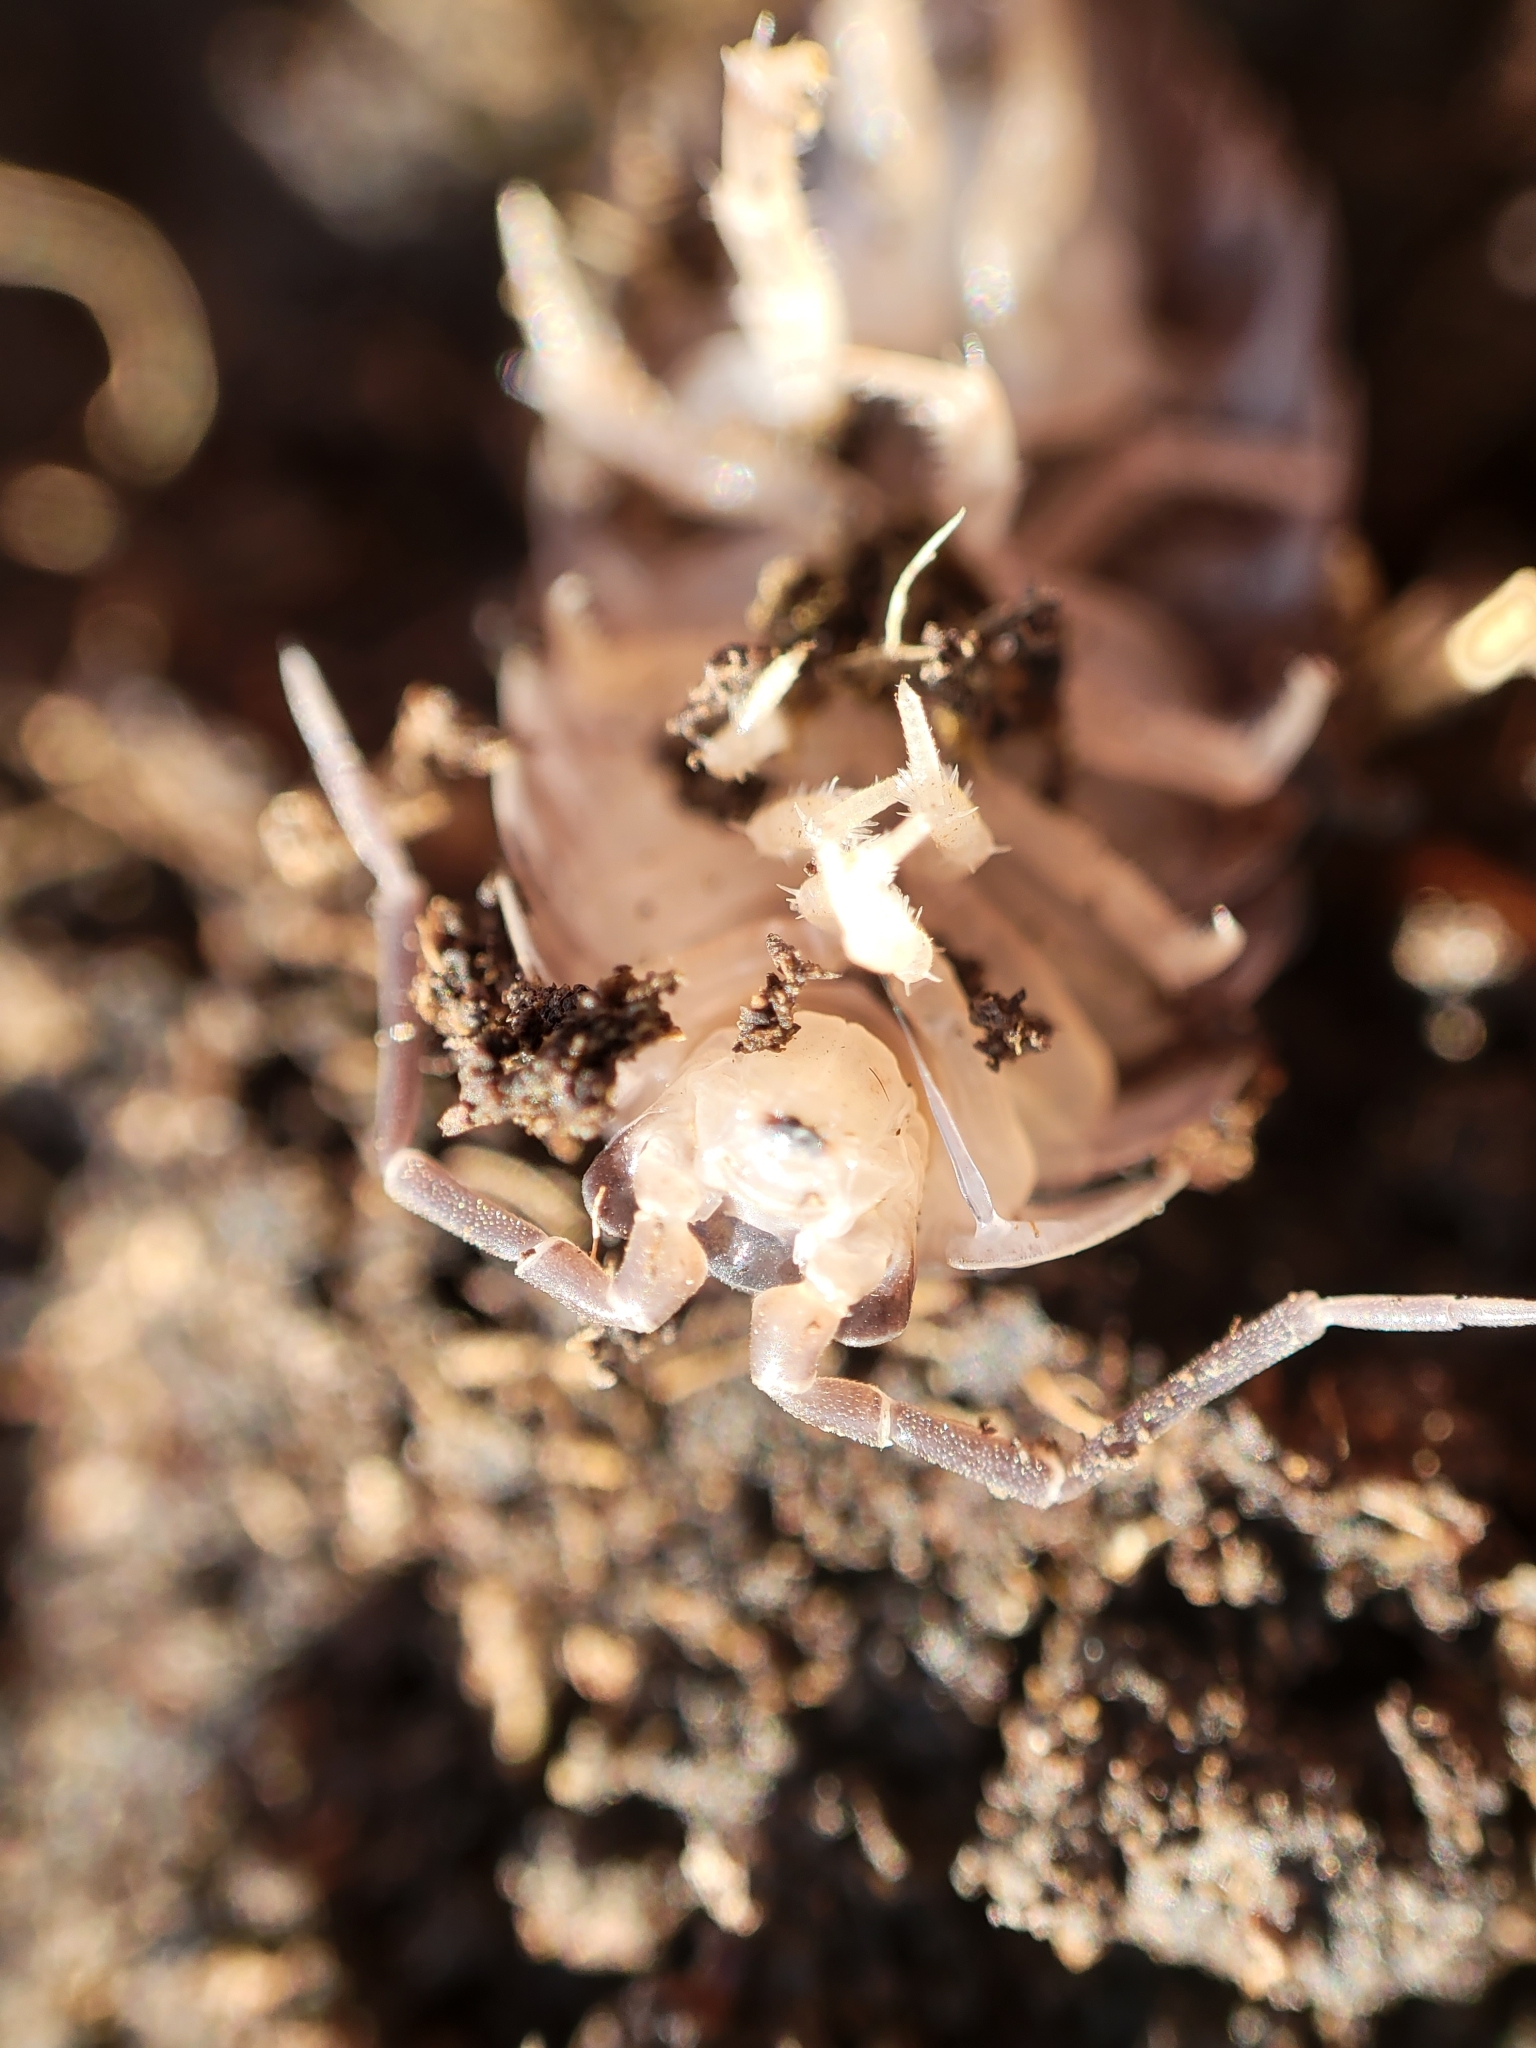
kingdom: Animalia
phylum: Arthropoda
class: Malacostraca
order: Isopoda
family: Porcellionidae
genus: Porcellio
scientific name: Porcellio laevis
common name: Swift woodlouse
